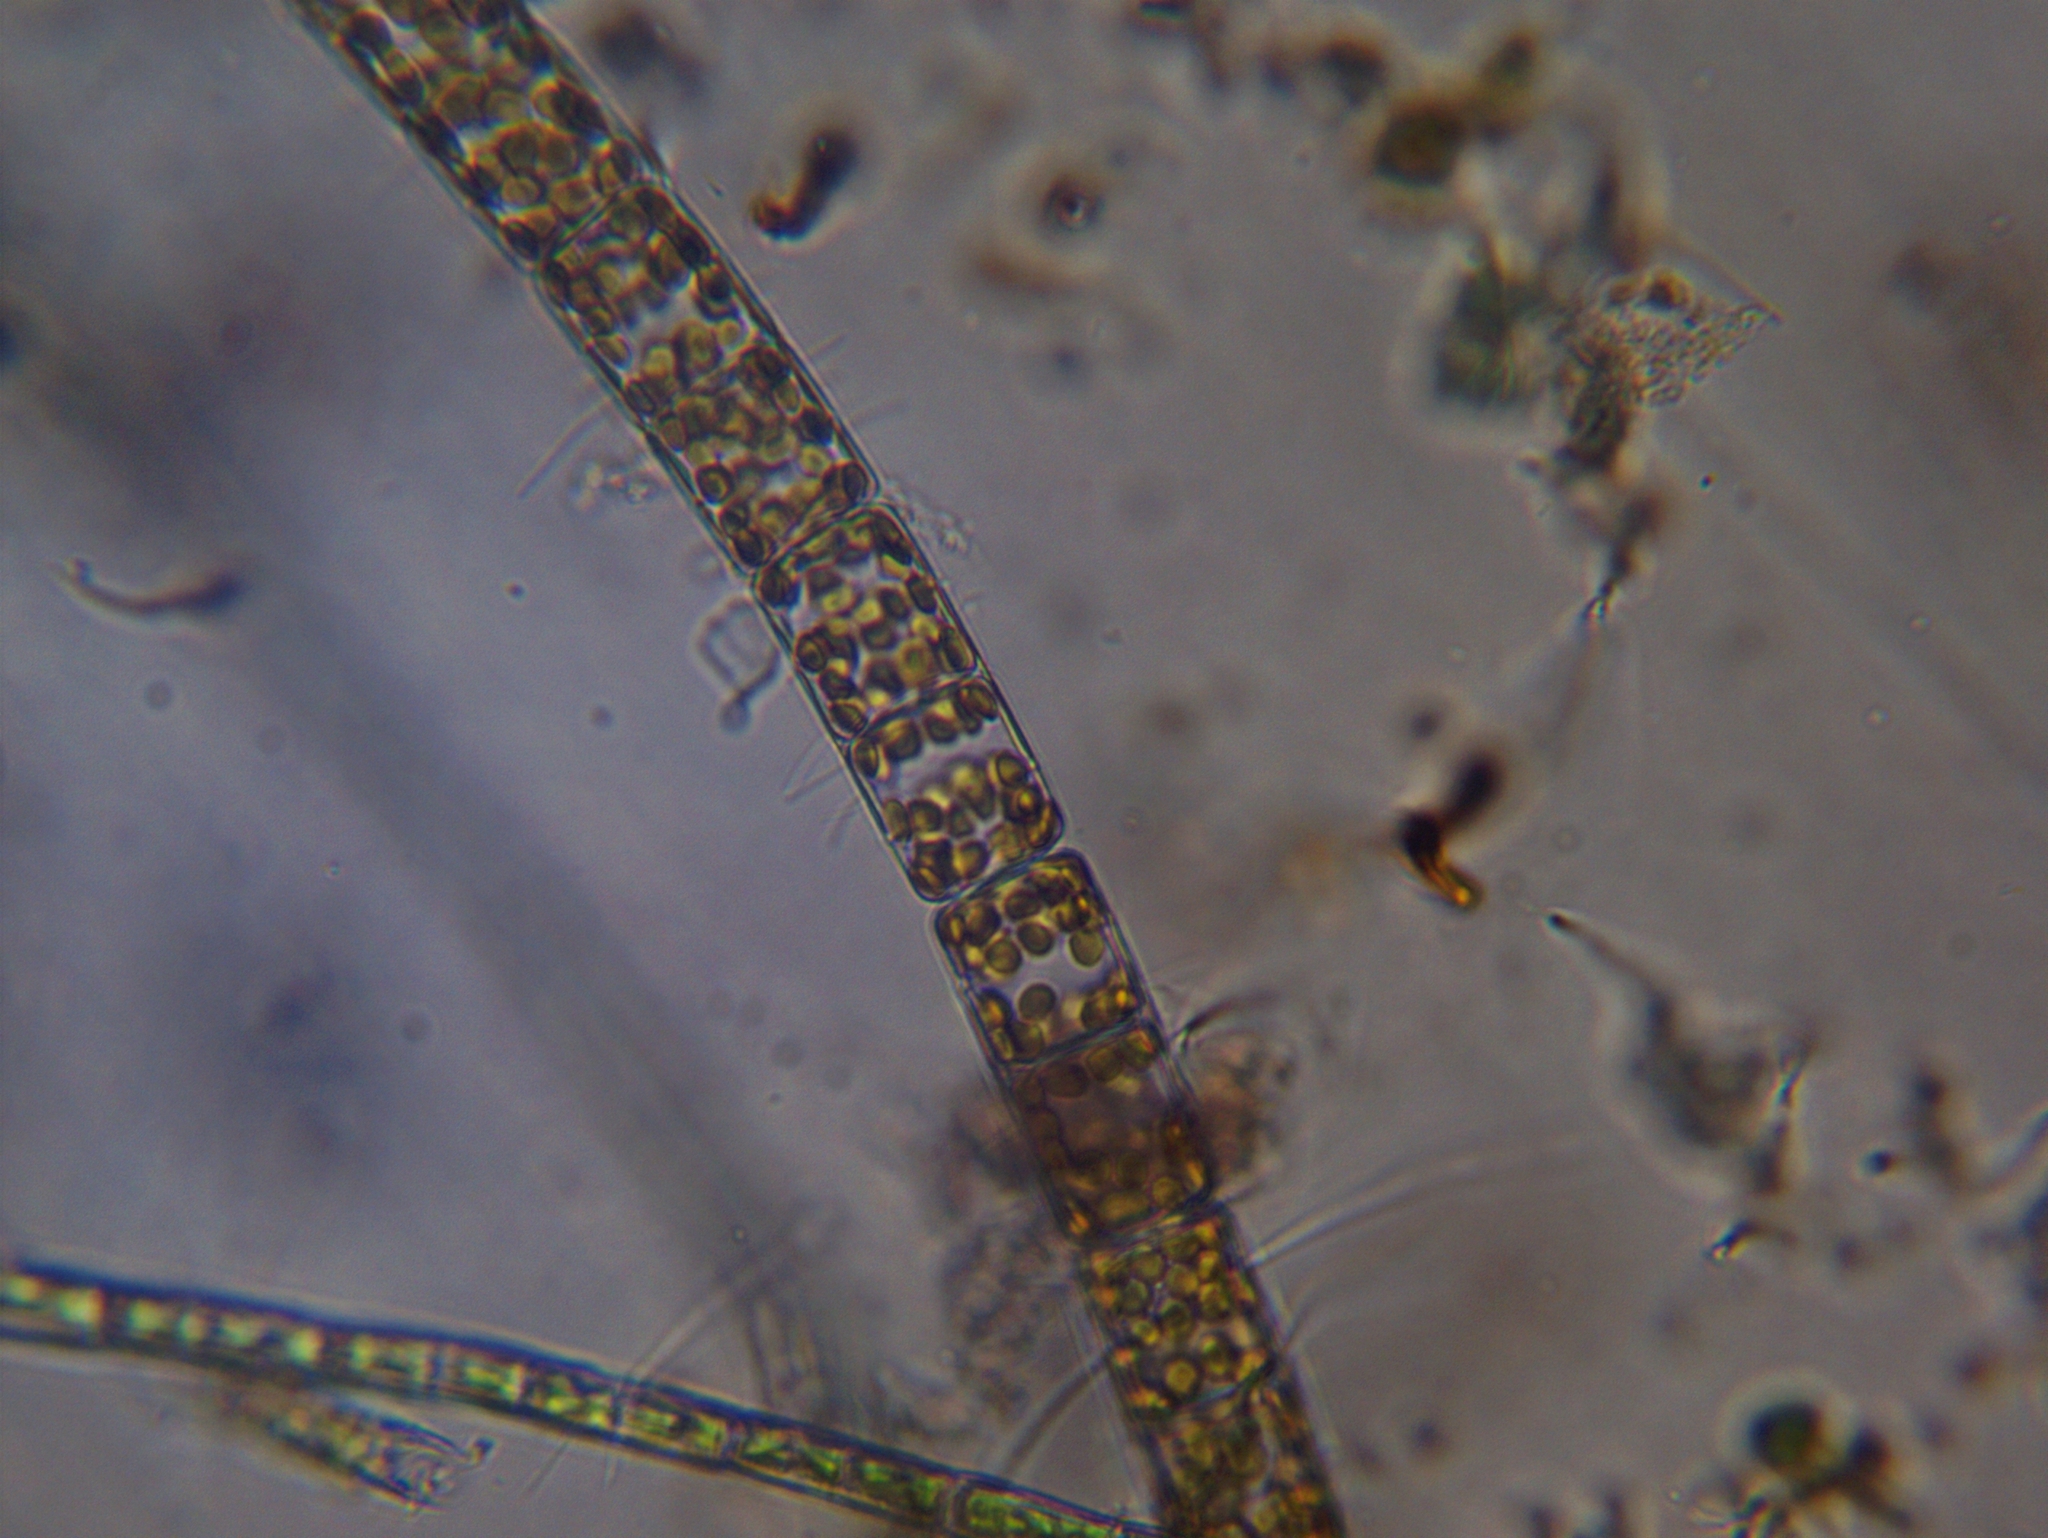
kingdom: Chromista
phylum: Ochrophyta
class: Bacillariophyceae
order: Melosirales
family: Melosiraceae
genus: Melosira
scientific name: Melosira varians
